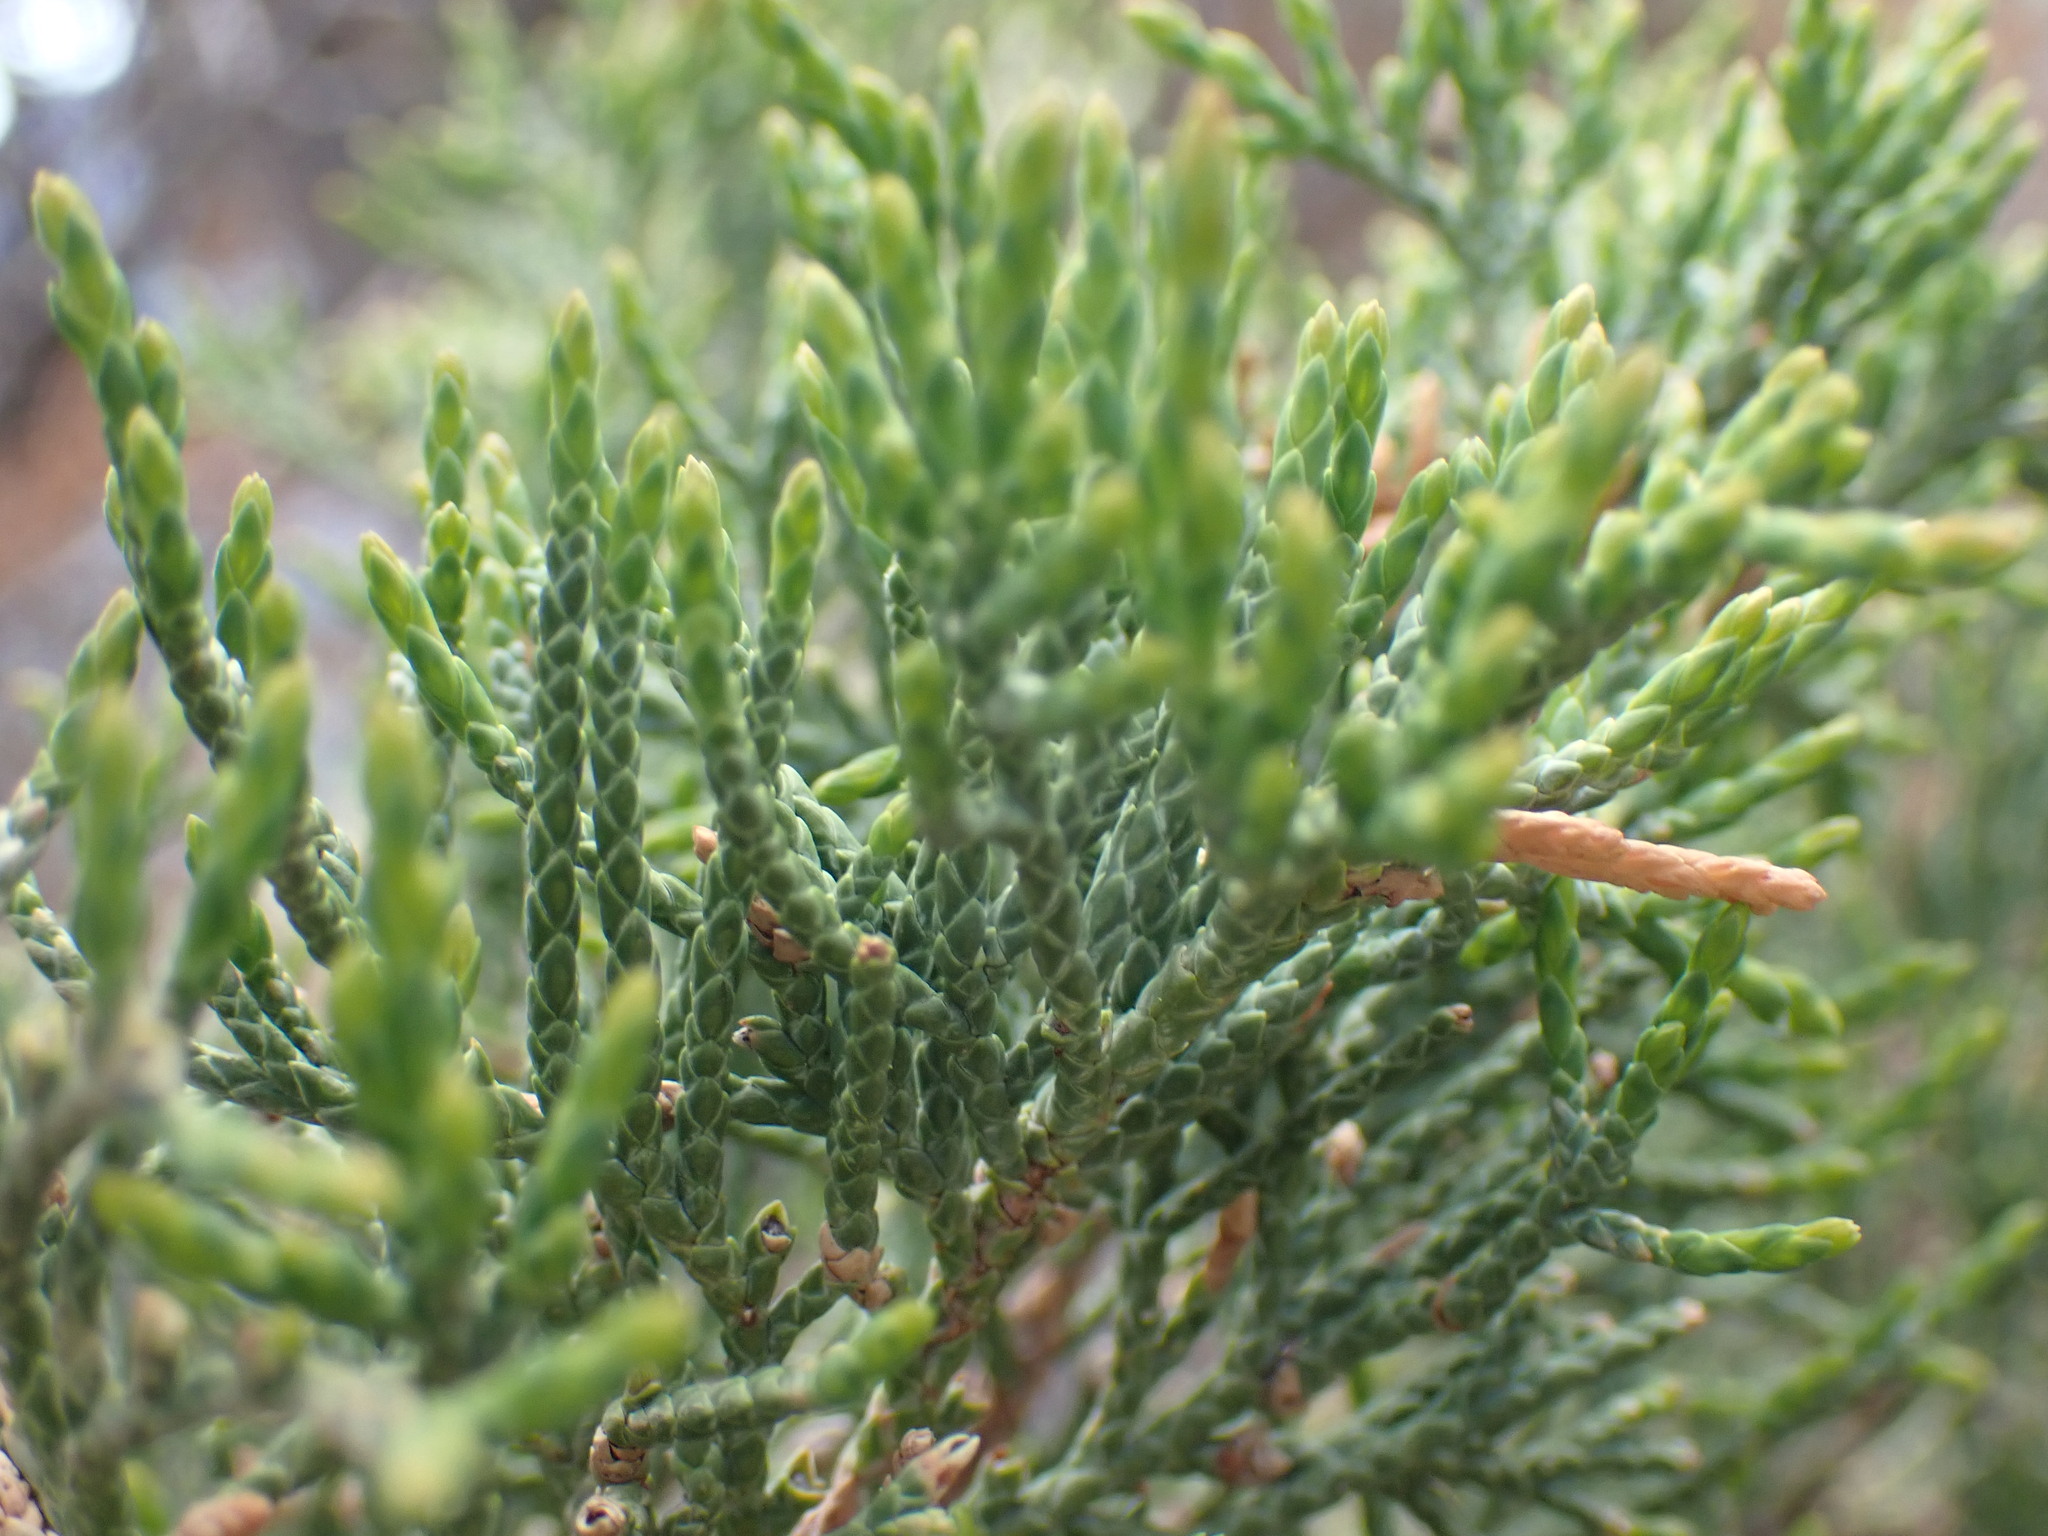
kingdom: Plantae
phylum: Tracheophyta
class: Pinopsida
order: Pinales
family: Cupressaceae
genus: Juniperus
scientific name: Juniperus scopulorum
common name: Rocky mountain juniper
